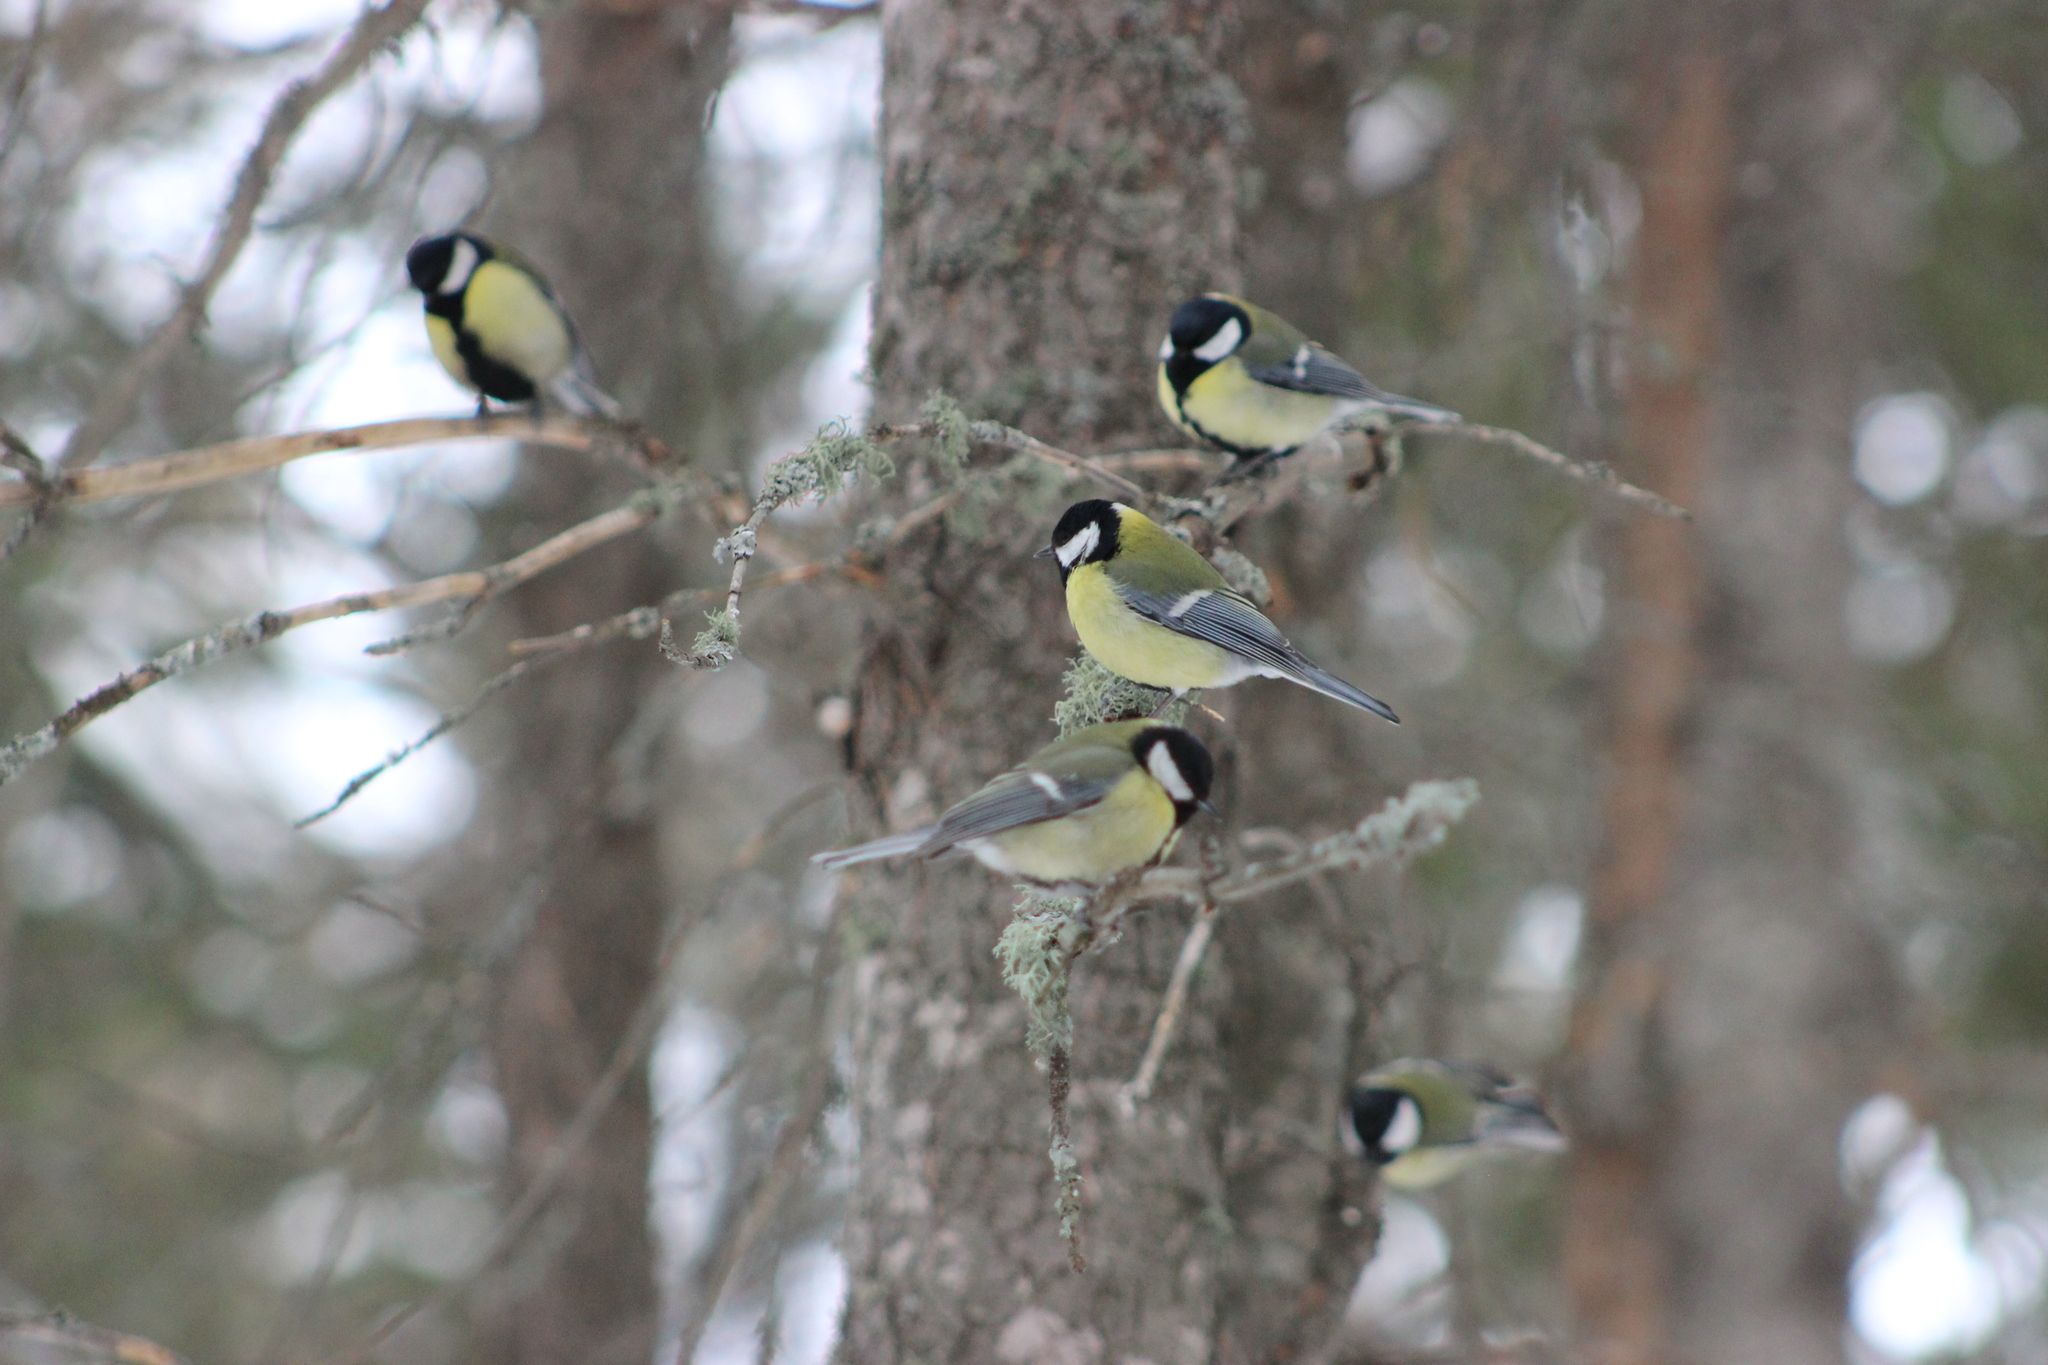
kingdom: Animalia
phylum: Chordata
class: Aves
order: Passeriformes
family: Paridae
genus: Parus
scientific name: Parus major
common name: Great tit
